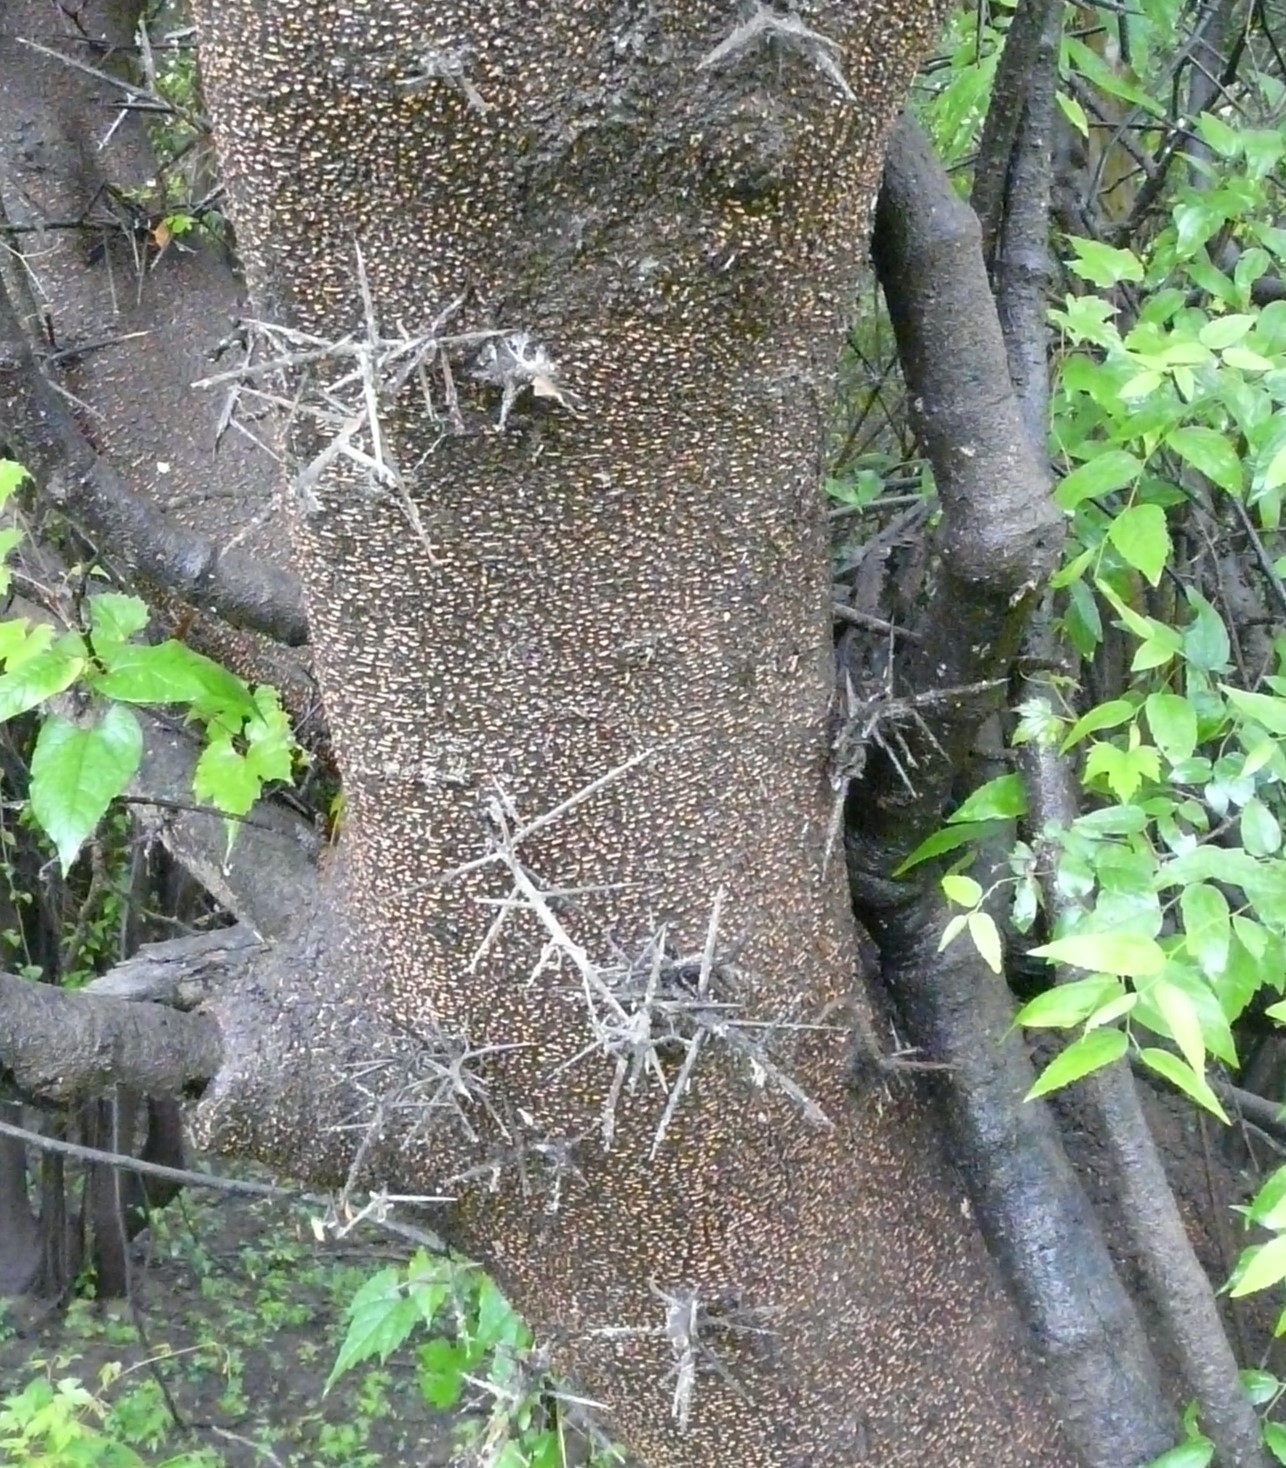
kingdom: Plantae
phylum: Tracheophyta
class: Magnoliopsida
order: Fabales
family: Fabaceae
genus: Gleditsia
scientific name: Gleditsia aquatica
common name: Swamp-locust
